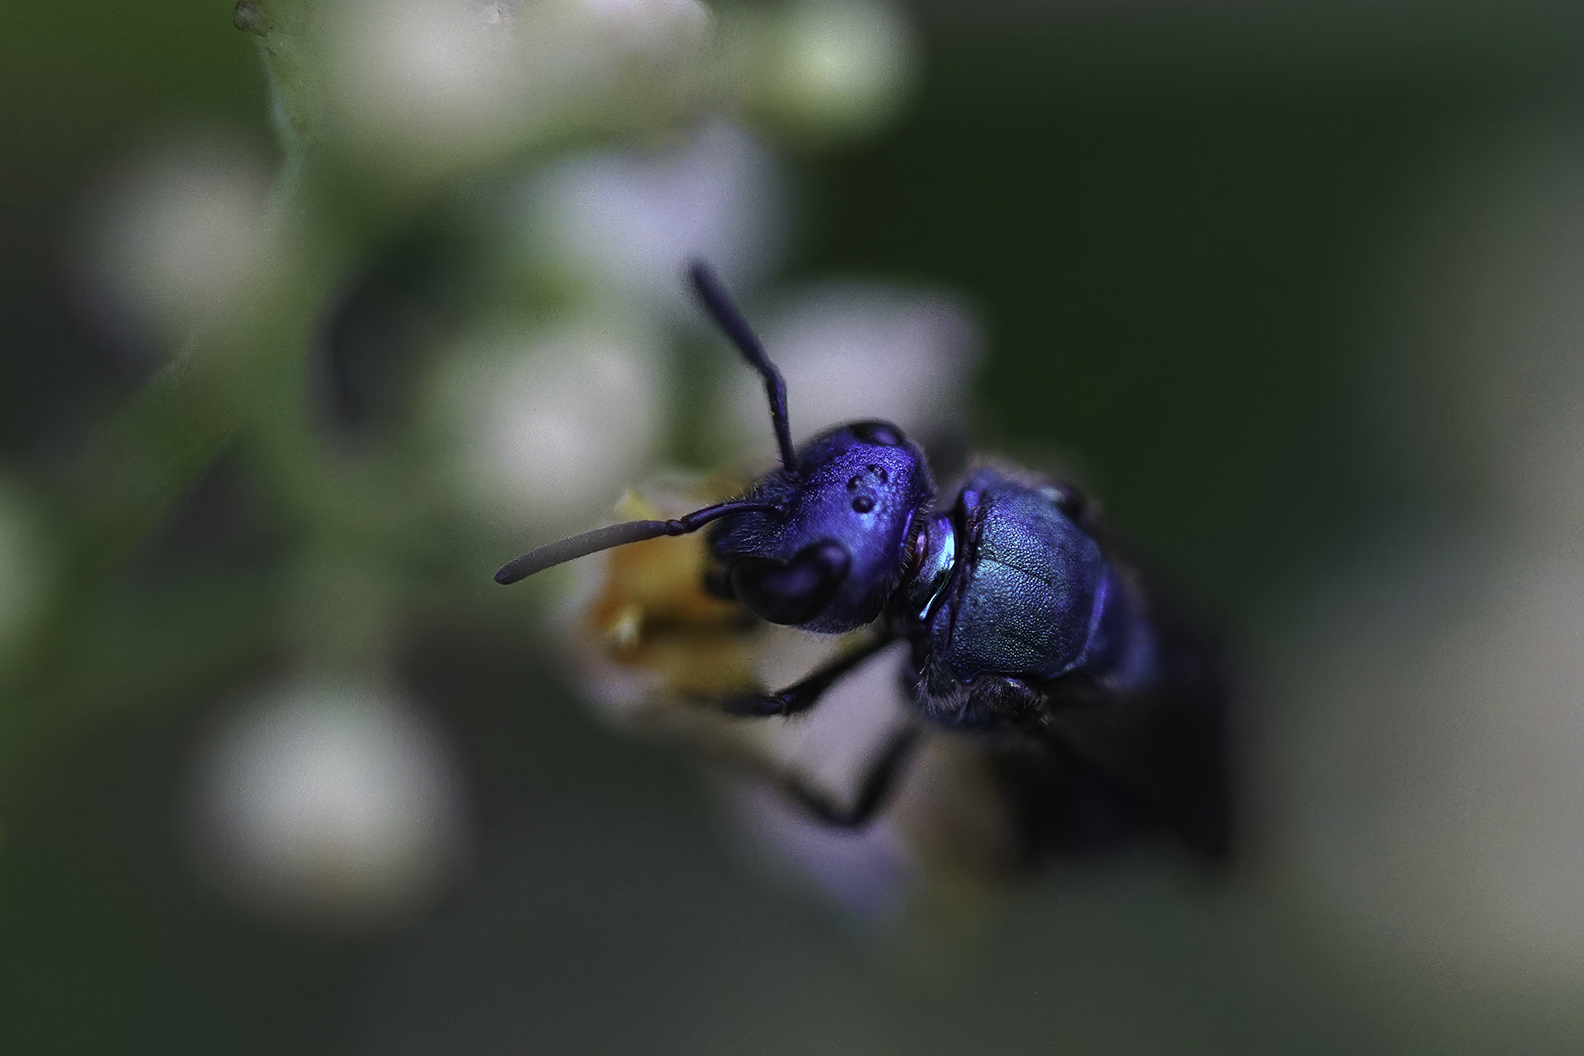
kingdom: Animalia
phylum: Arthropoda
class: Insecta
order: Hymenoptera
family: Halictidae
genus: Augochlora
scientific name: Augochlora pura
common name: Pure green sweat bee
